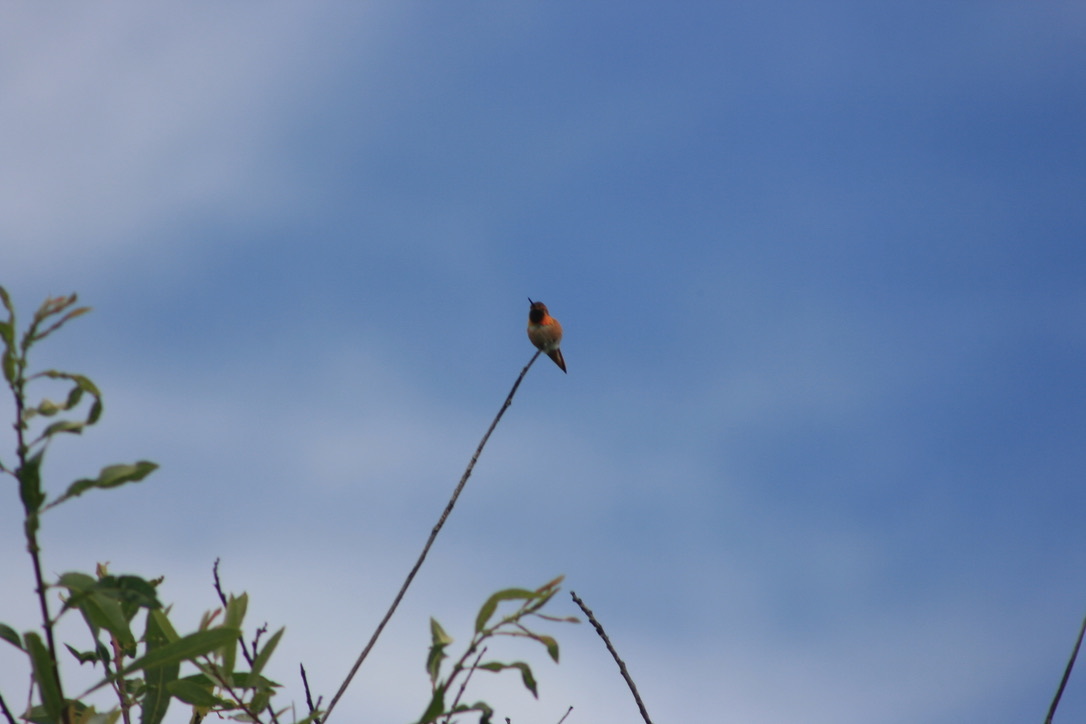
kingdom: Animalia
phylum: Chordata
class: Aves
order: Apodiformes
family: Trochilidae
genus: Selasphorus
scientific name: Selasphorus sasin
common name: Allen's hummingbird
